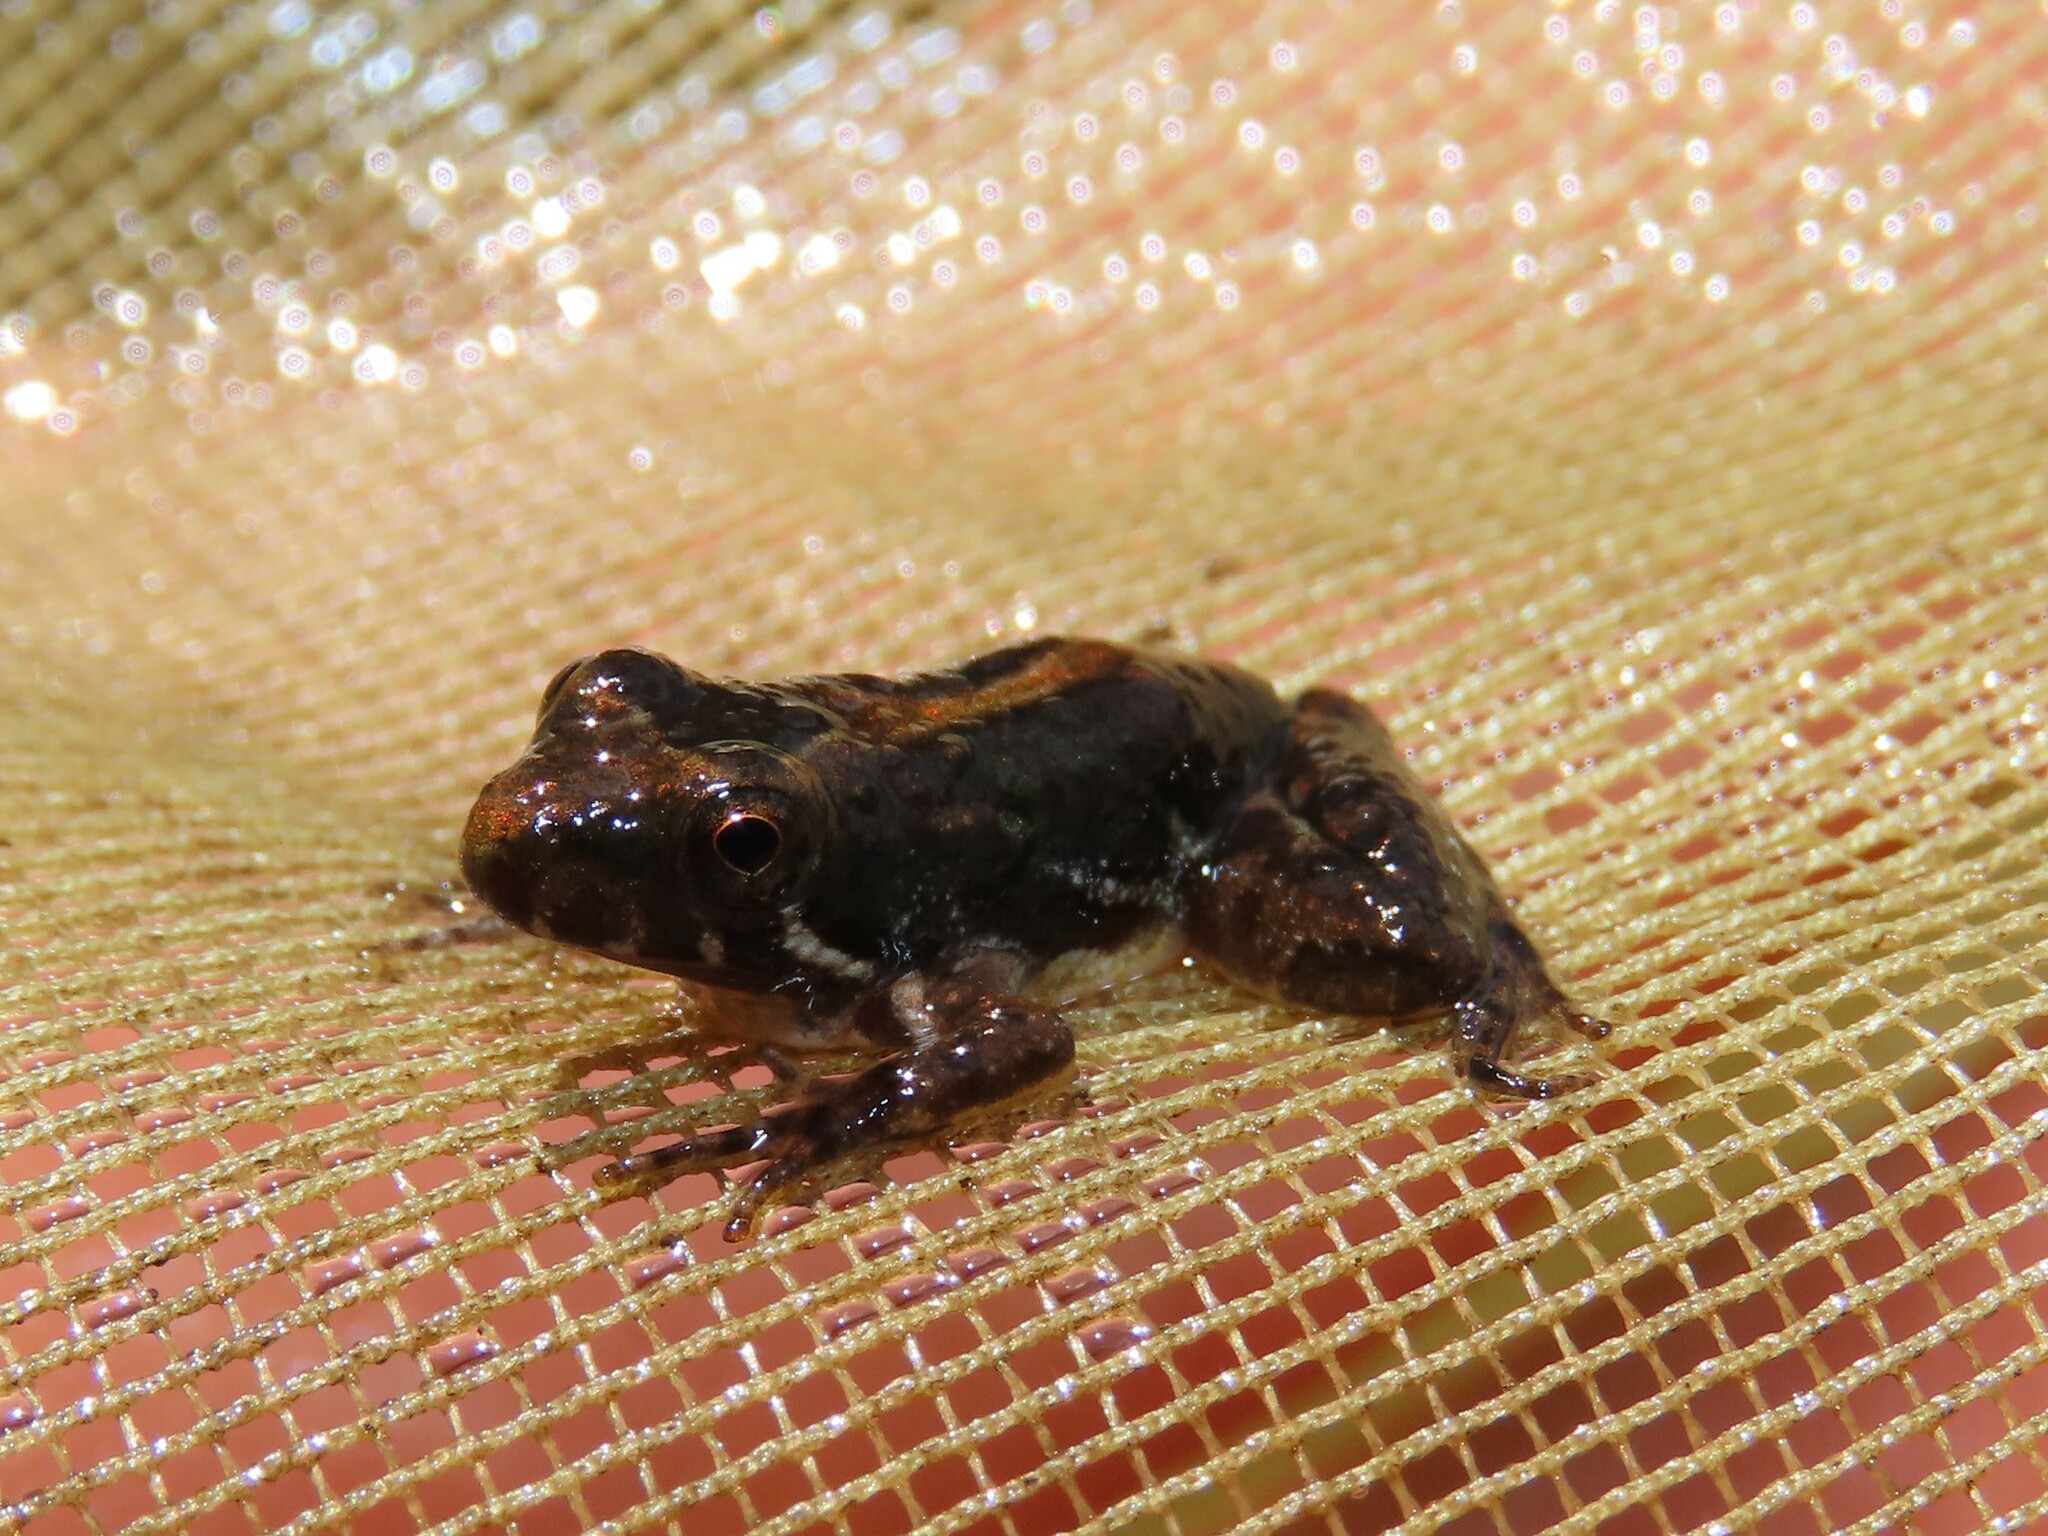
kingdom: Animalia
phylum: Chordata
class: Amphibia
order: Anura
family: Hylidae
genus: Acris
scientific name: Acris gryllus
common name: Southern cricket frog
